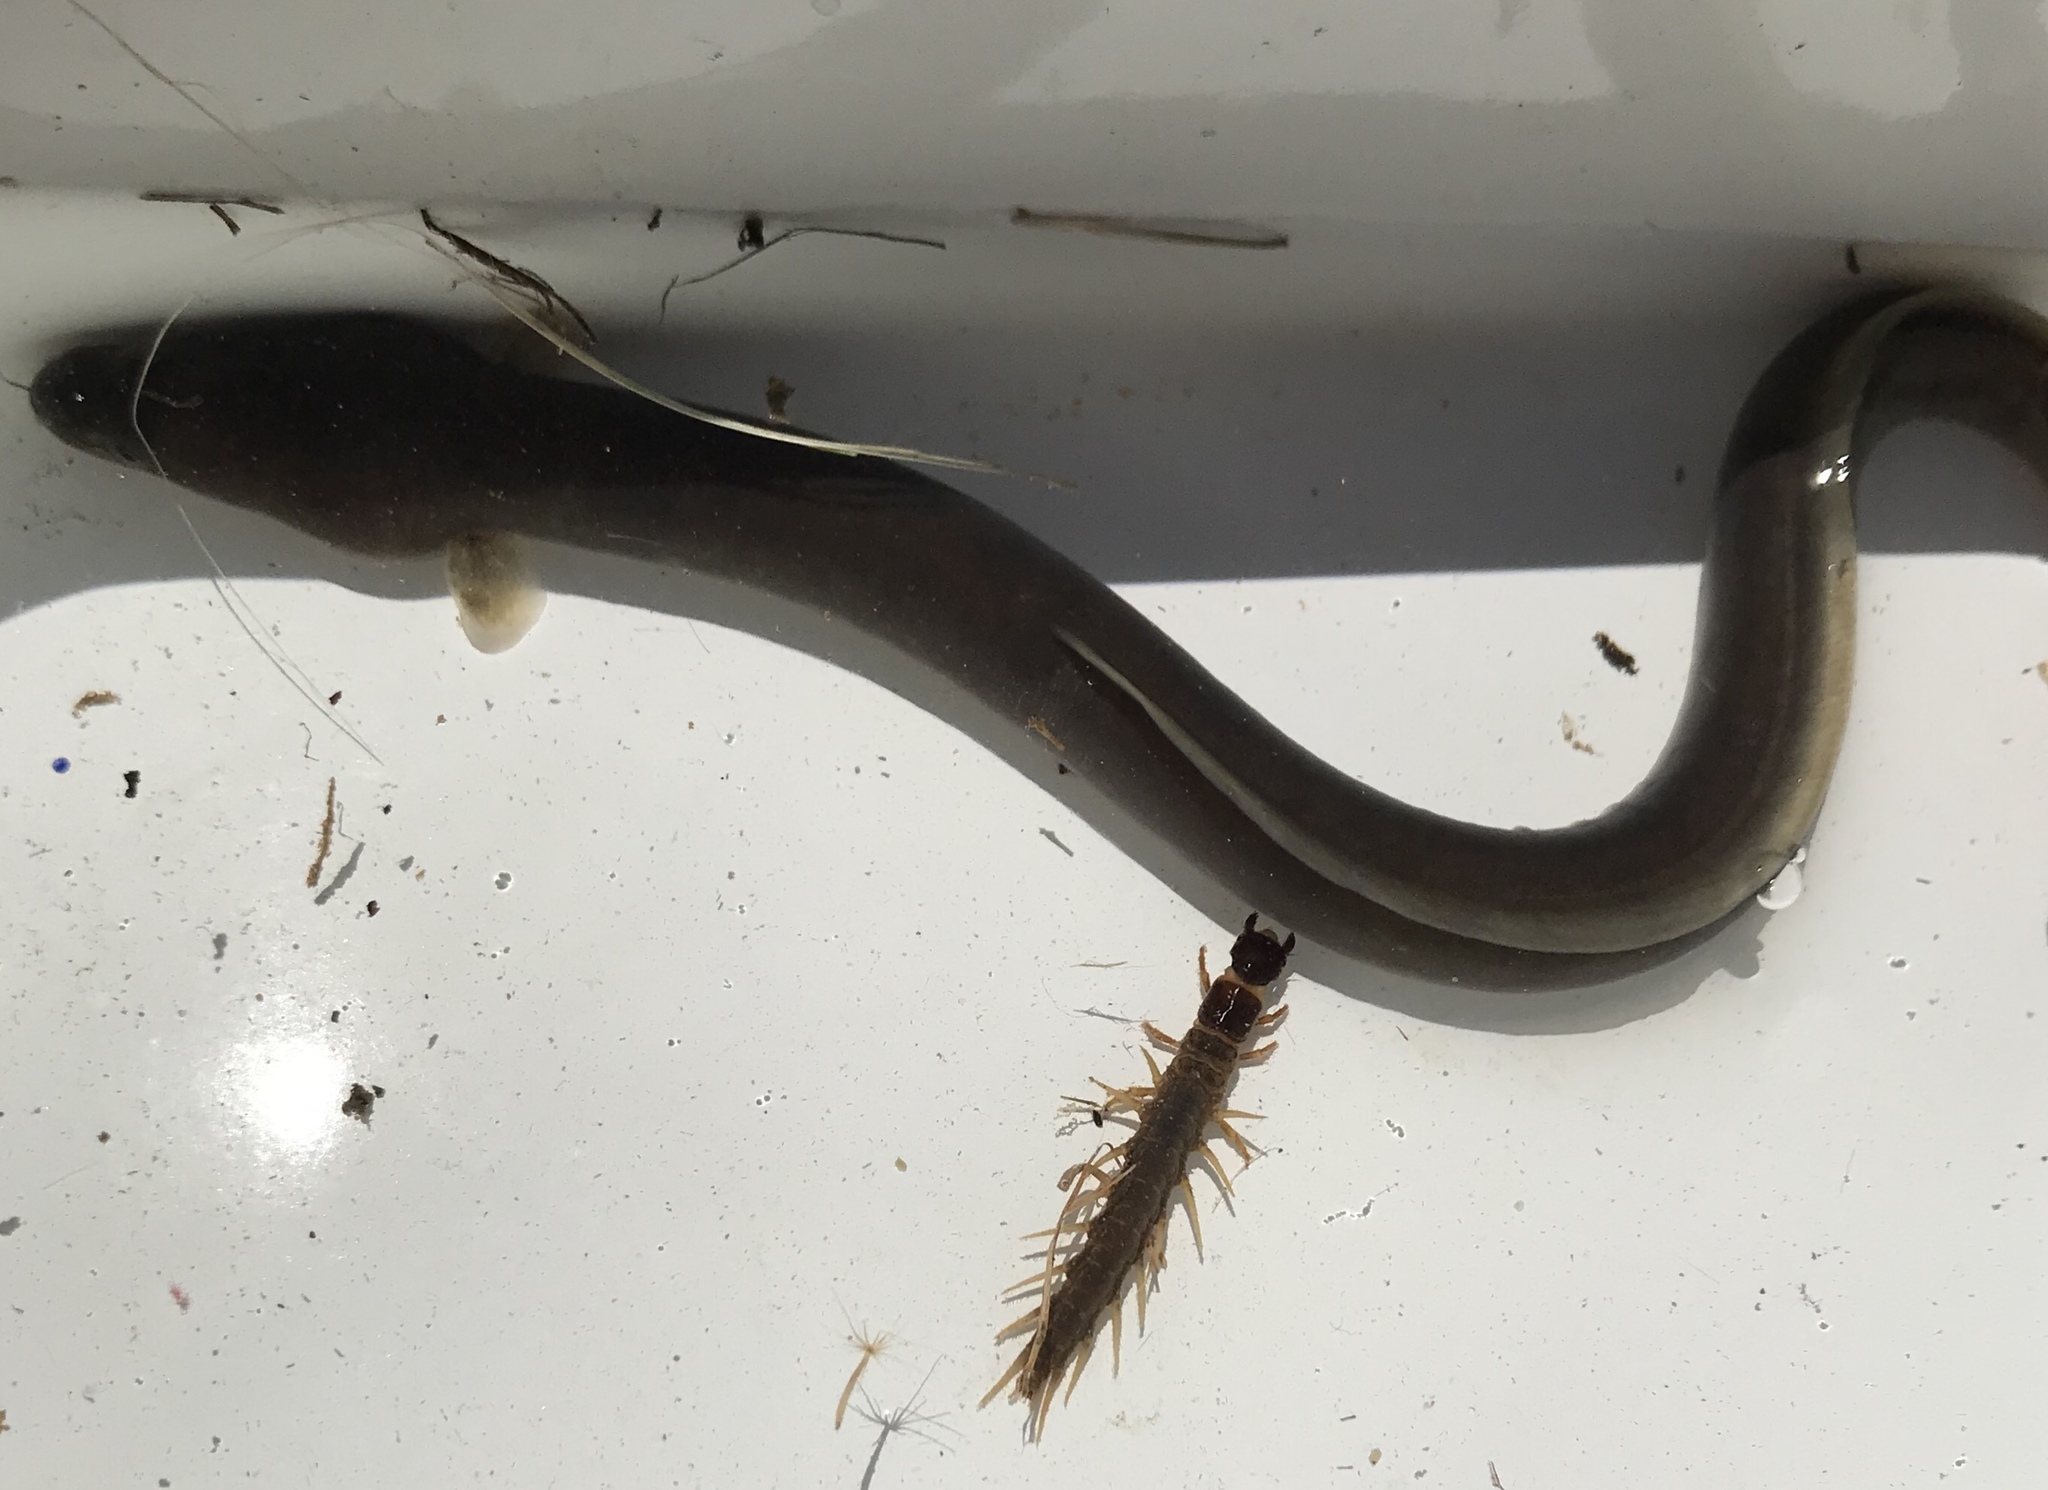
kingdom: Animalia
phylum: Arthropoda
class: Insecta
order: Megaloptera
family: Corydalidae
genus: Archichauliodes
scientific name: Archichauliodes diversus
